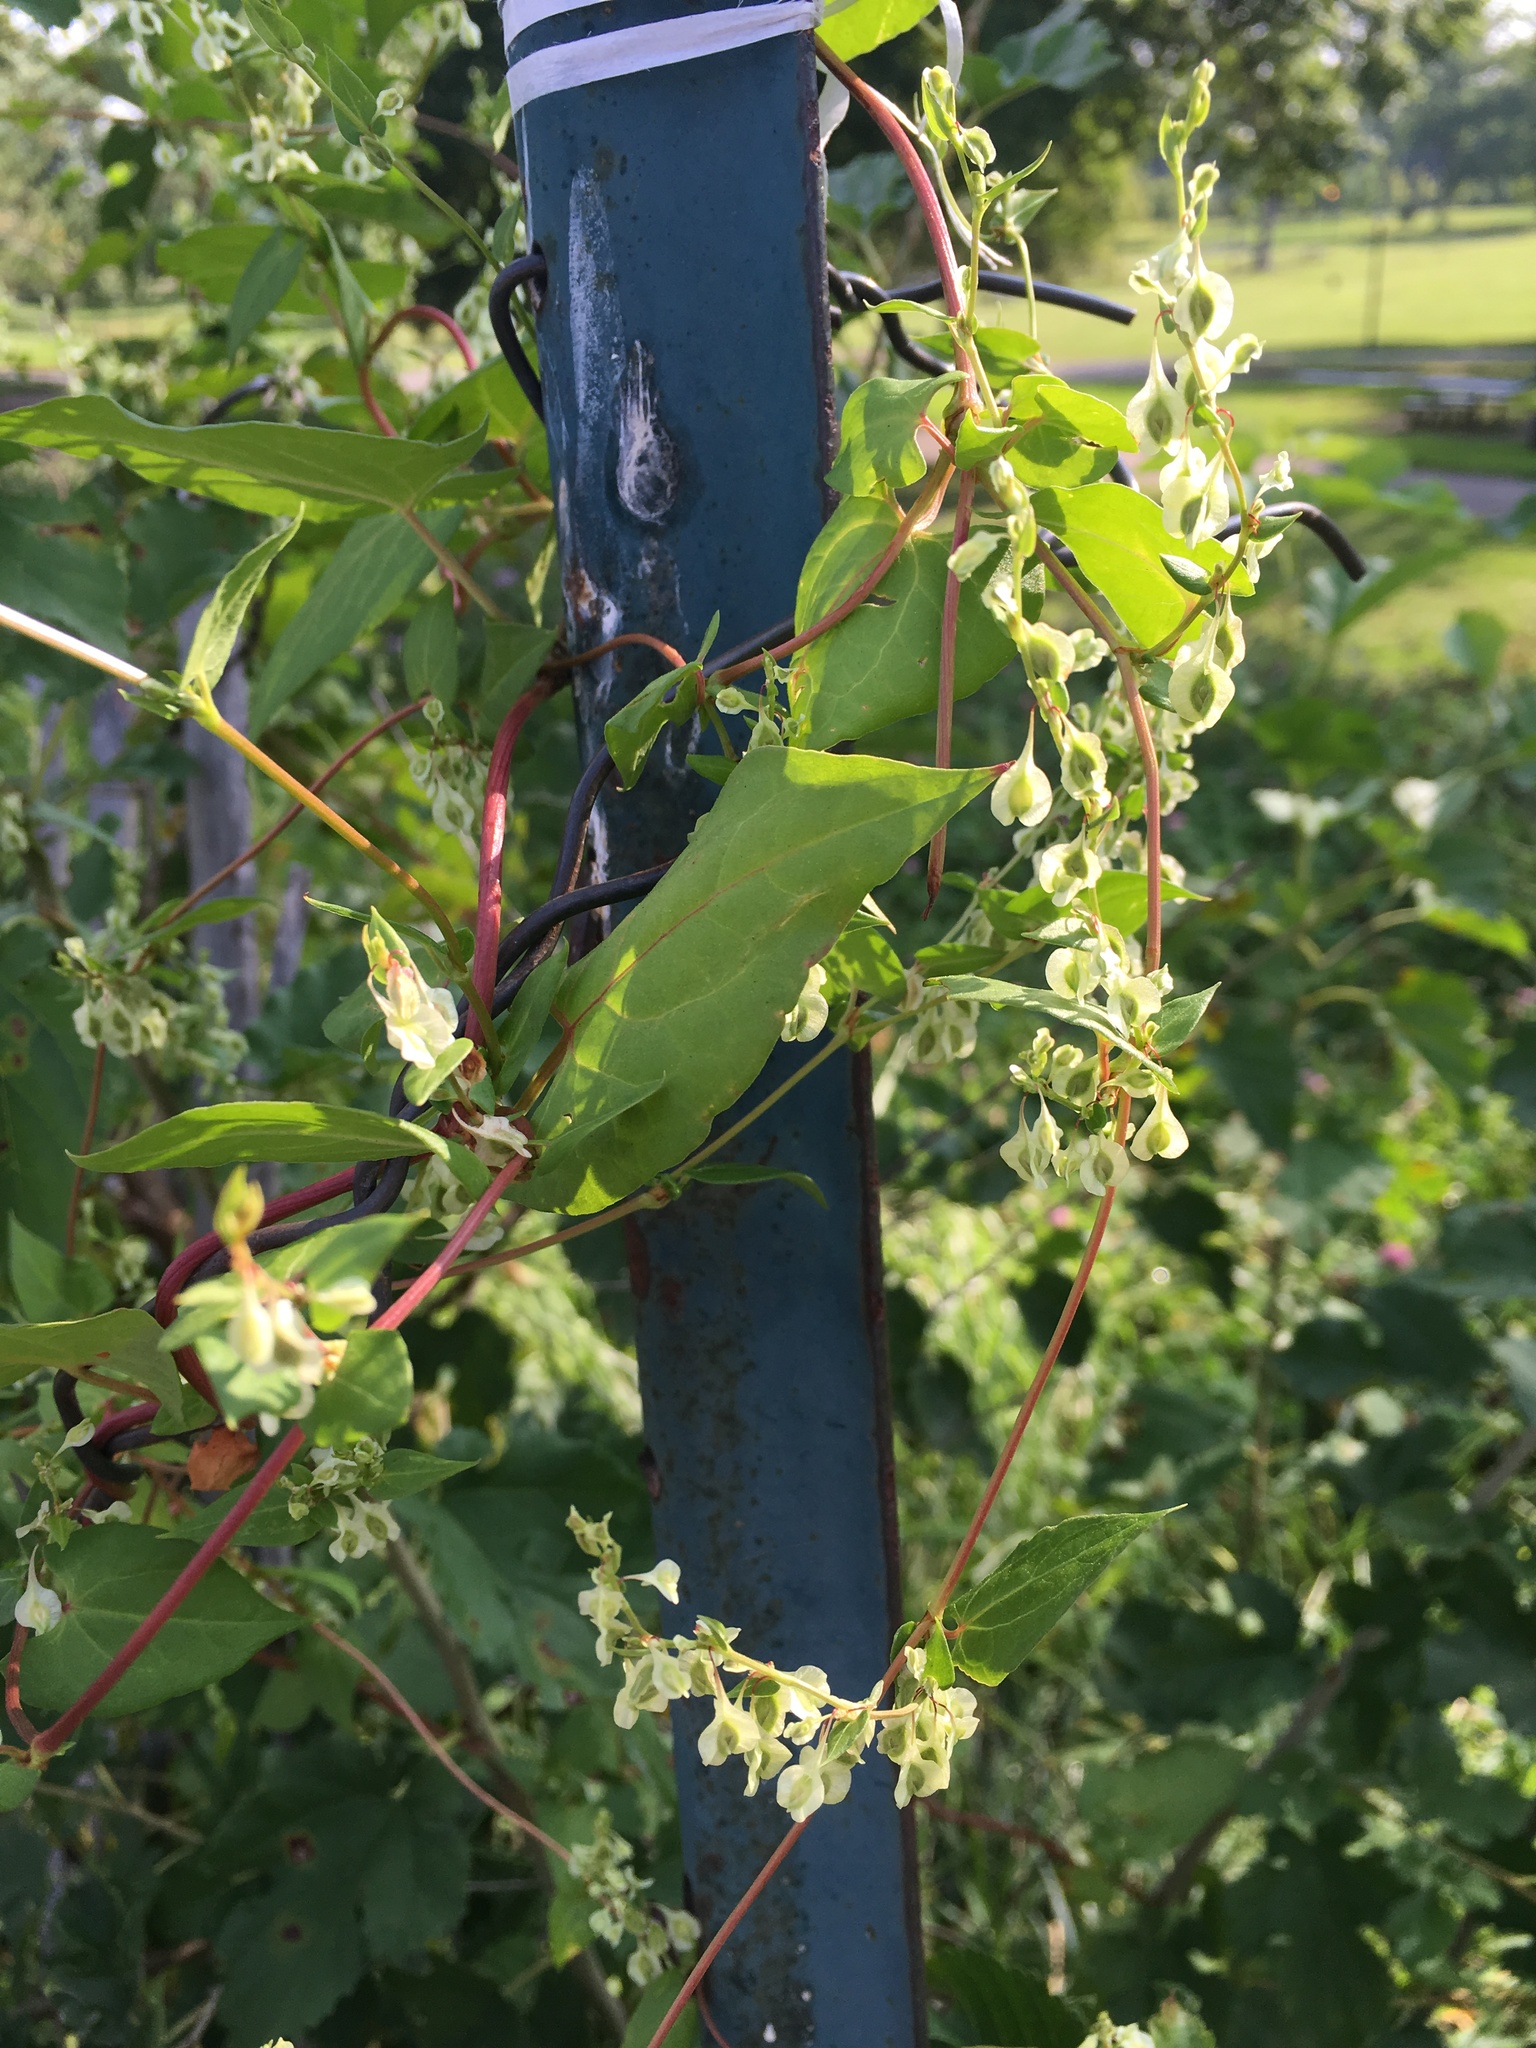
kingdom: Plantae
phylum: Tracheophyta
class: Magnoliopsida
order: Caryophyllales
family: Polygonaceae
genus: Fallopia
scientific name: Fallopia scandens
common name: Climbing false buckwheat
